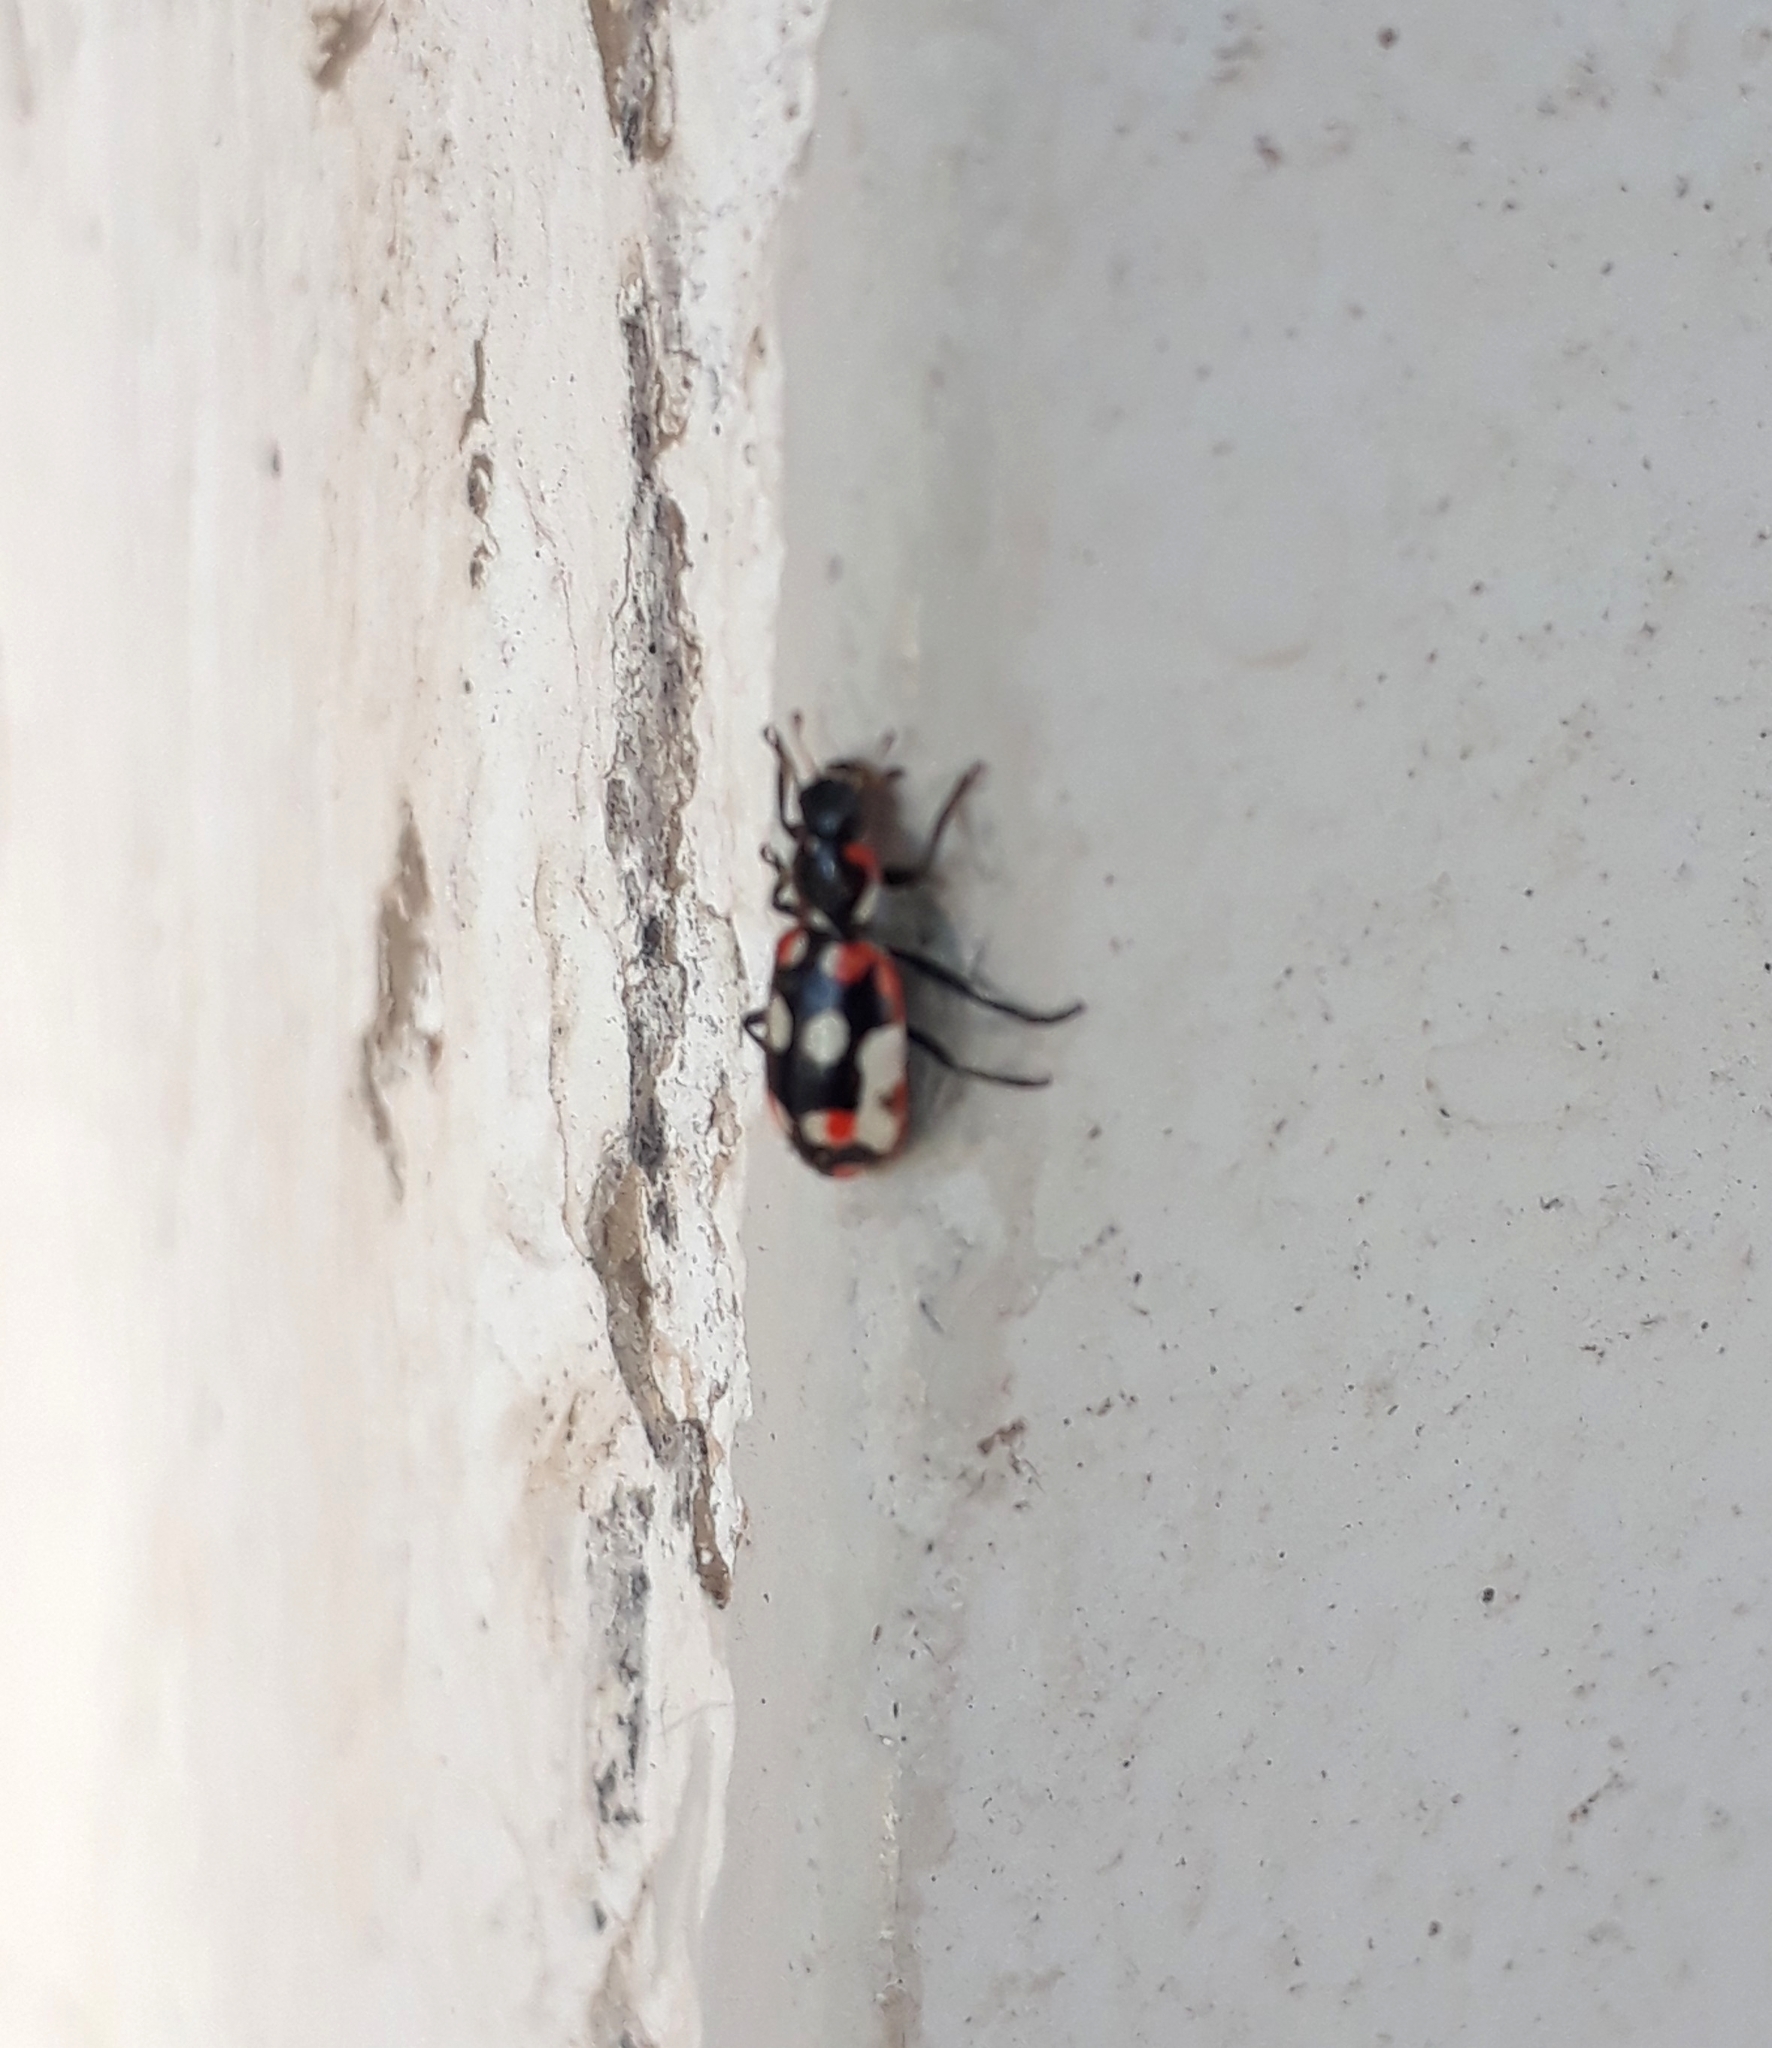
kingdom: Animalia
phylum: Arthropoda
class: Insecta
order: Coleoptera
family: Coccinellidae
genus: Eriopis
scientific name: Eriopis connexa
